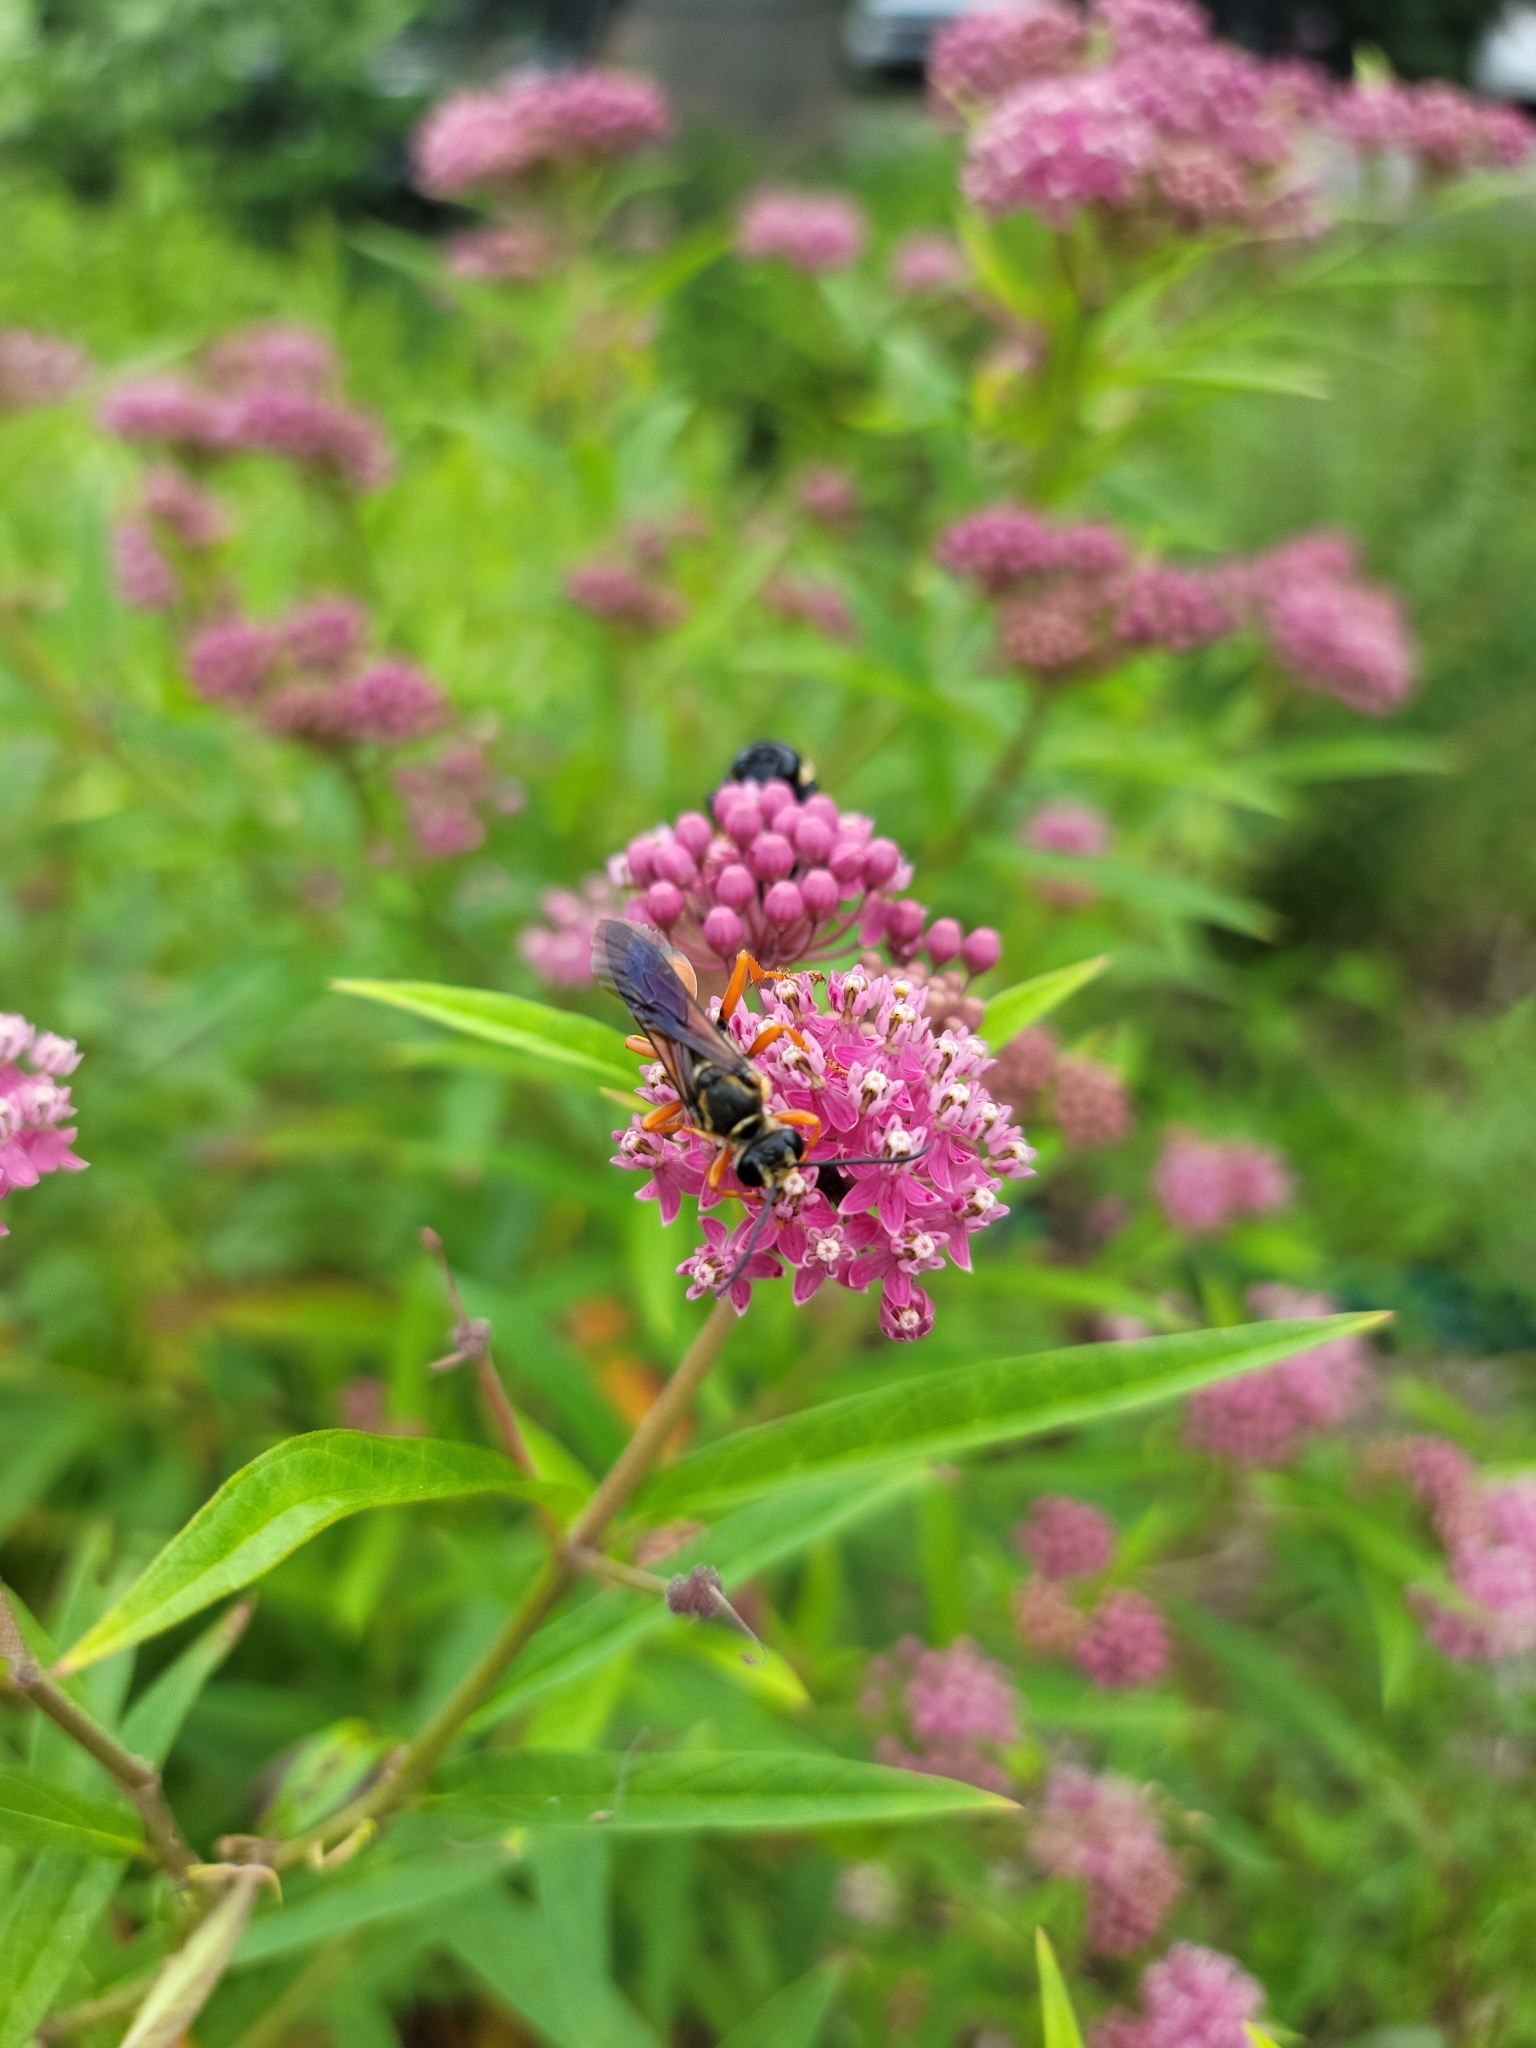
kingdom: Animalia
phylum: Arthropoda
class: Insecta
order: Hymenoptera
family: Sphecidae
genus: Sphex
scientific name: Sphex ichneumoneus
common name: Great golden digger wasp
